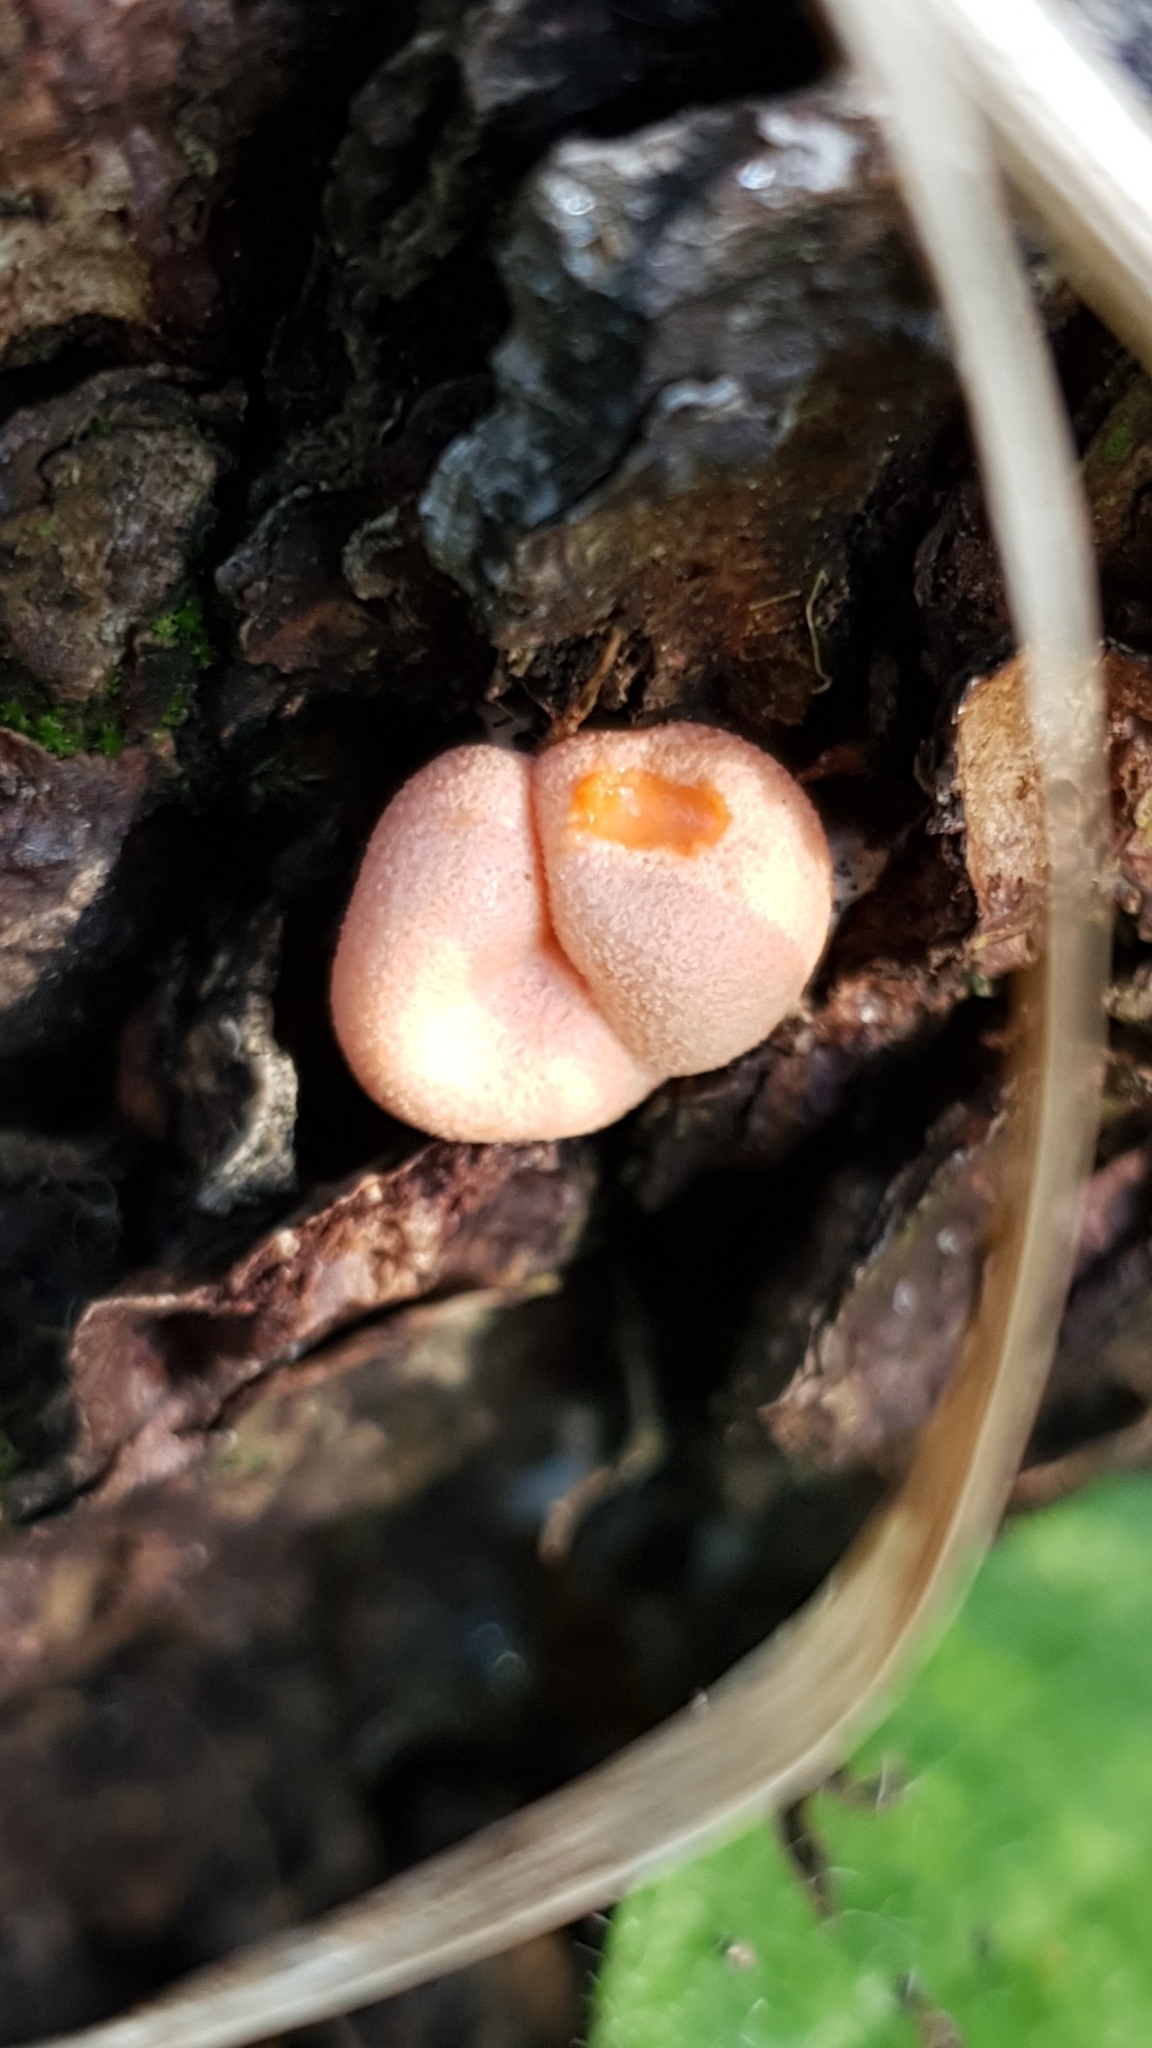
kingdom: Protozoa
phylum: Mycetozoa
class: Myxomycetes
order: Cribrariales
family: Tubiferaceae
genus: Lycogala
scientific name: Lycogala epidendrum
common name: Wolf's milk
